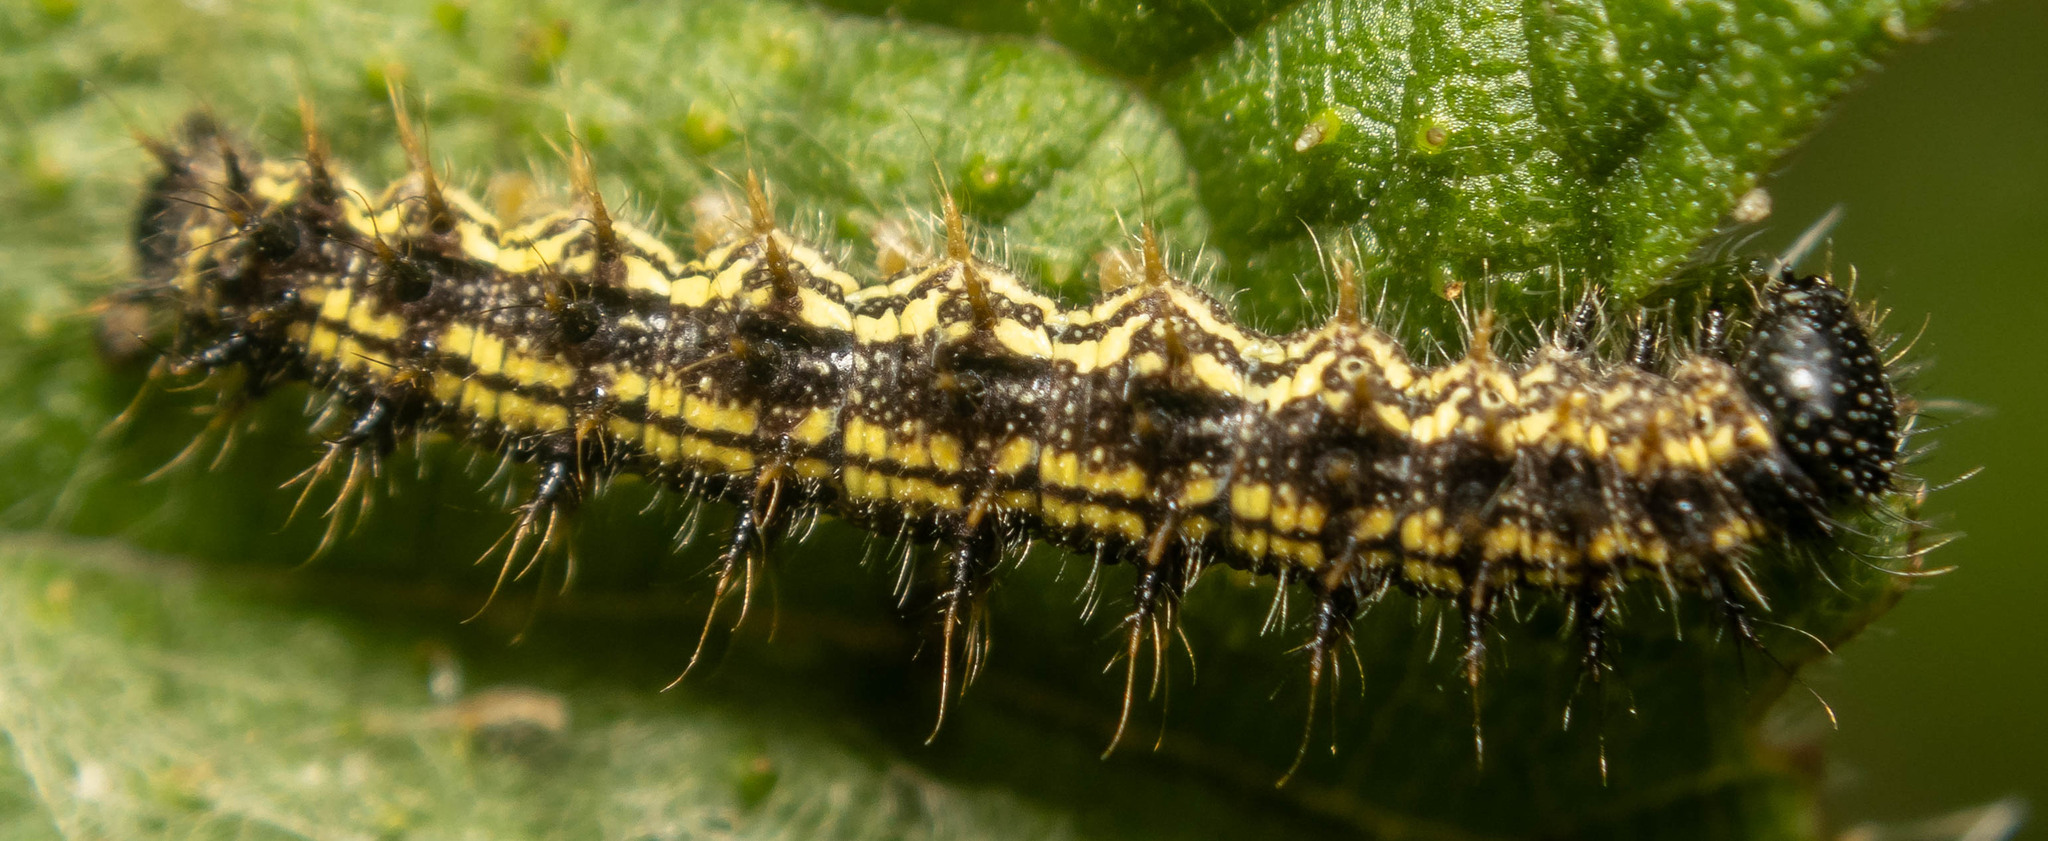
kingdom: Animalia
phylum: Arthropoda
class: Insecta
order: Lepidoptera
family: Nymphalidae
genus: Aglais
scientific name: Aglais urticae
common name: Small tortoiseshell
